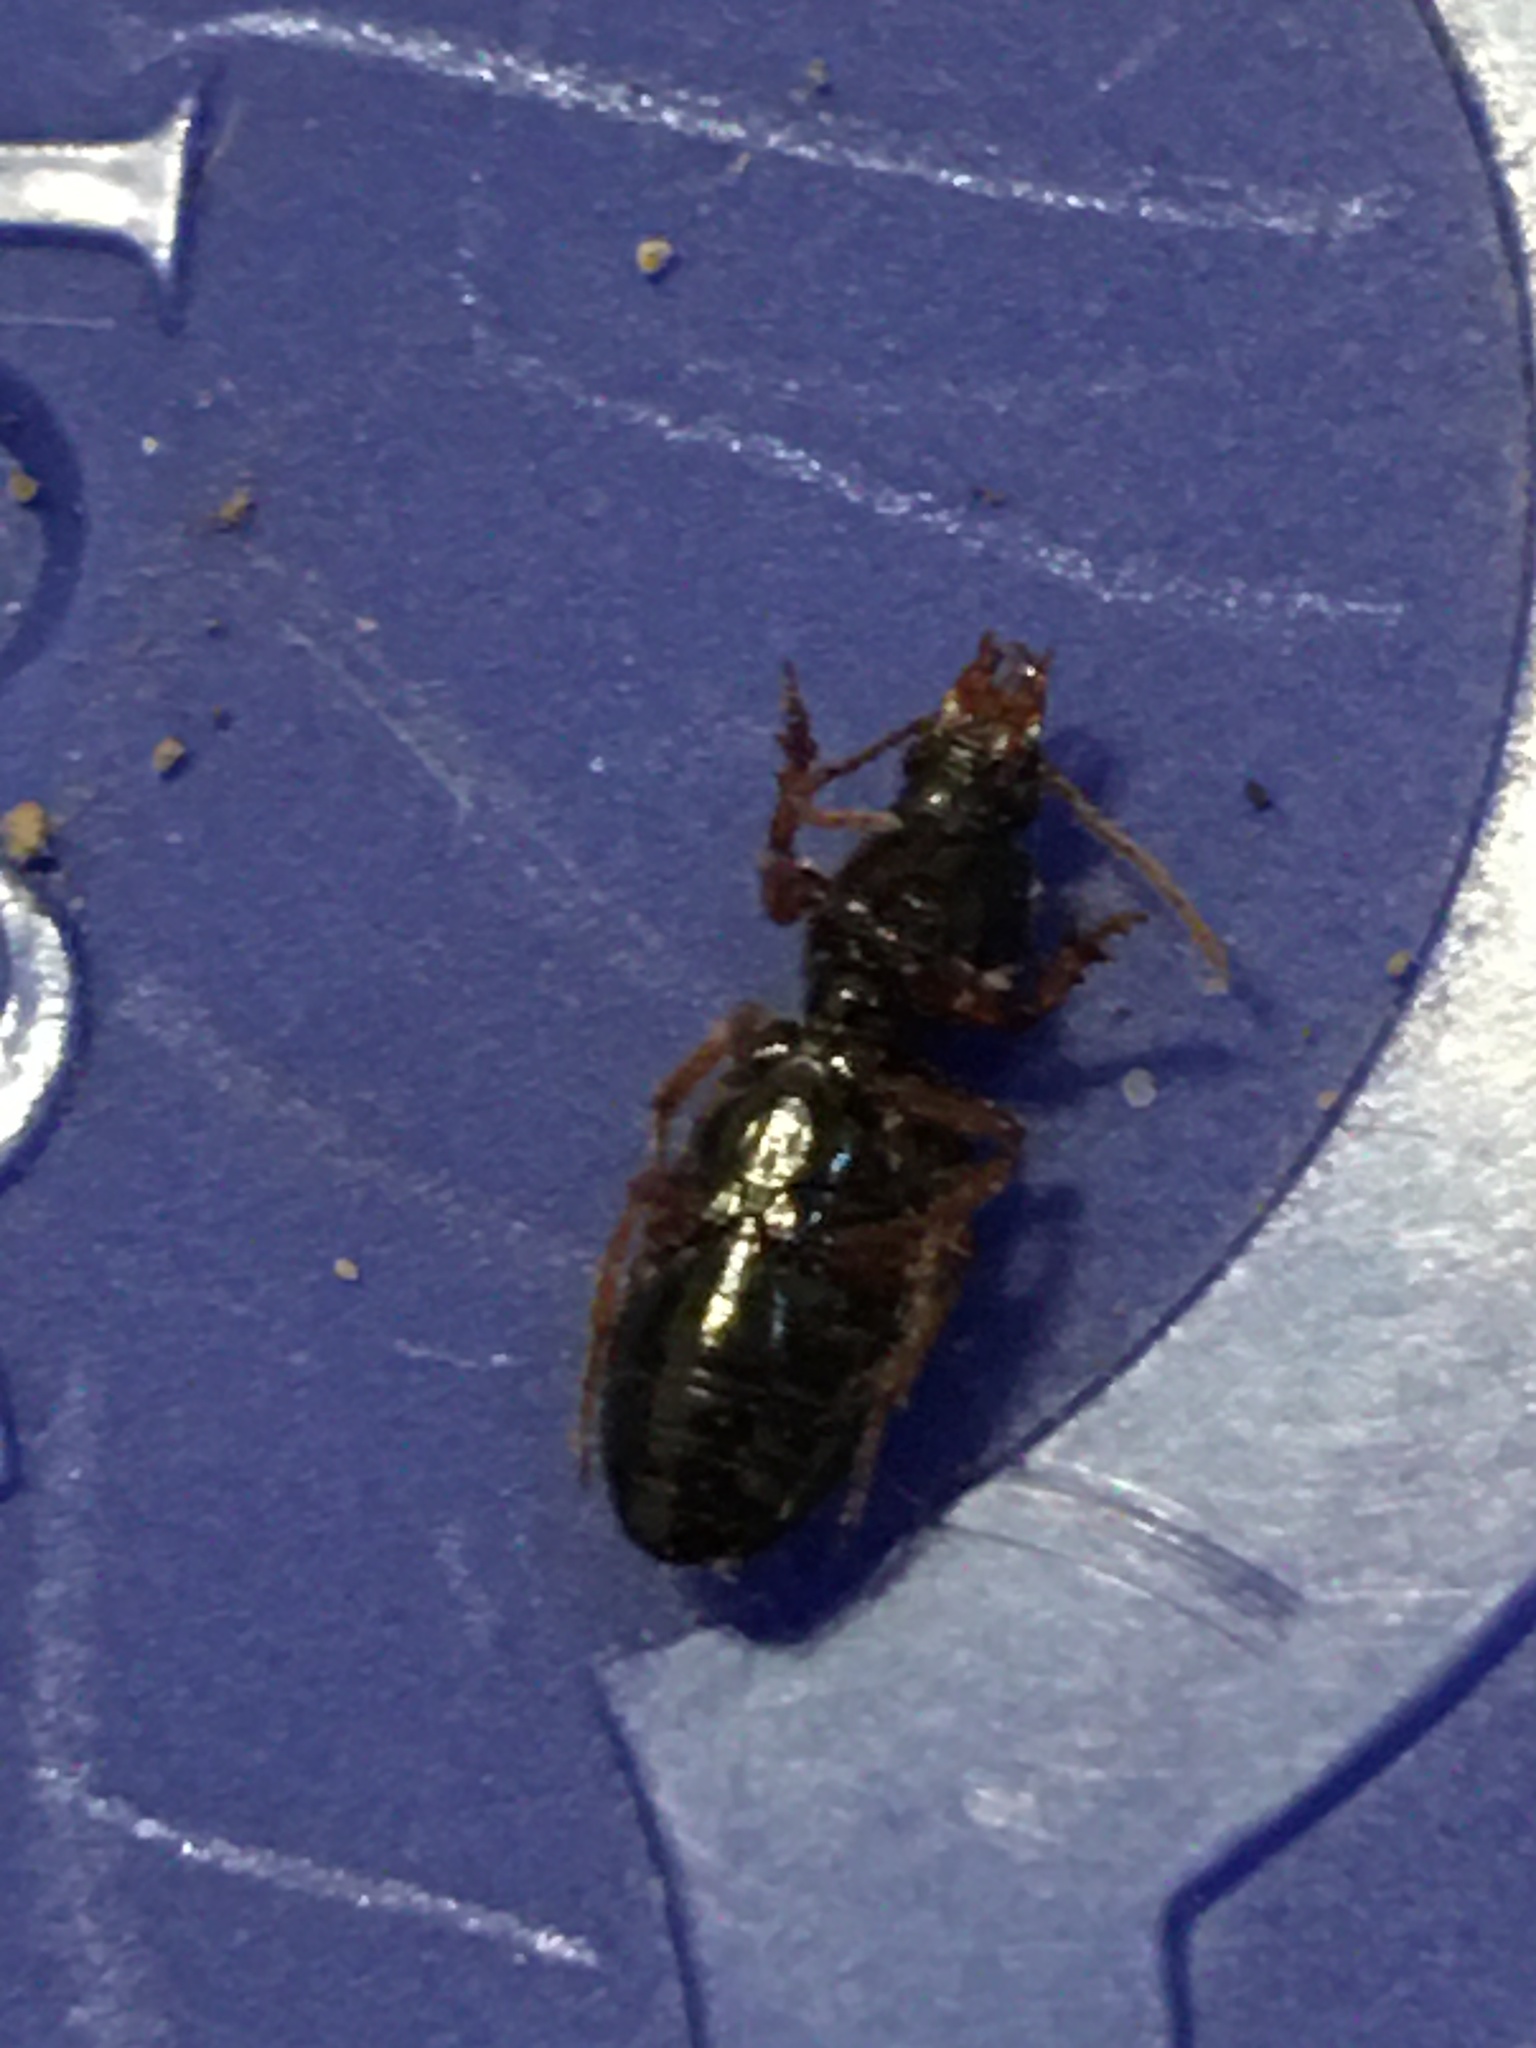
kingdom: Animalia
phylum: Arthropoda
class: Insecta
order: Coleoptera
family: Carabidae
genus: Aspidoglossa
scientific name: Aspidoglossa subangulata
